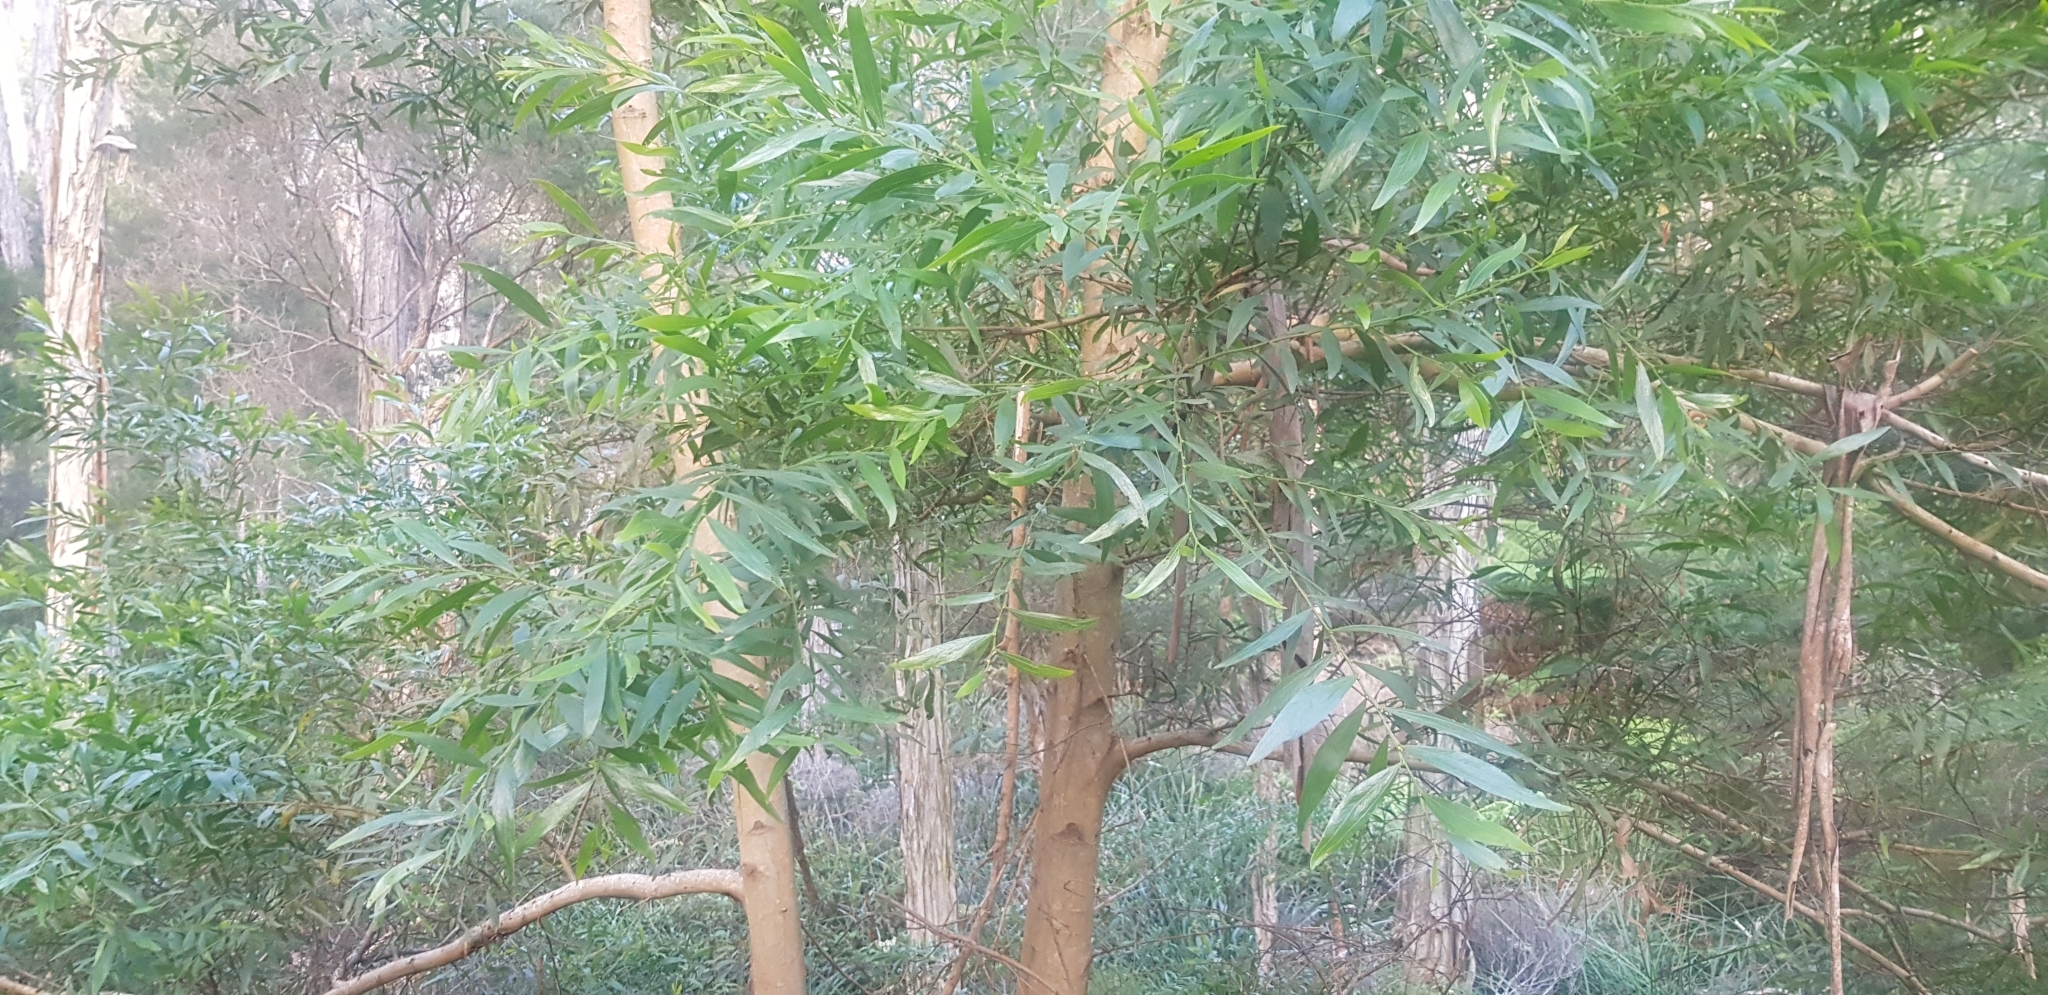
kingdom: Plantae
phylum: Tracheophyta
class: Magnoliopsida
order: Fabales
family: Fabaceae
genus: Acacia
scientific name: Acacia leprosa
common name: Cinnamon wattle
